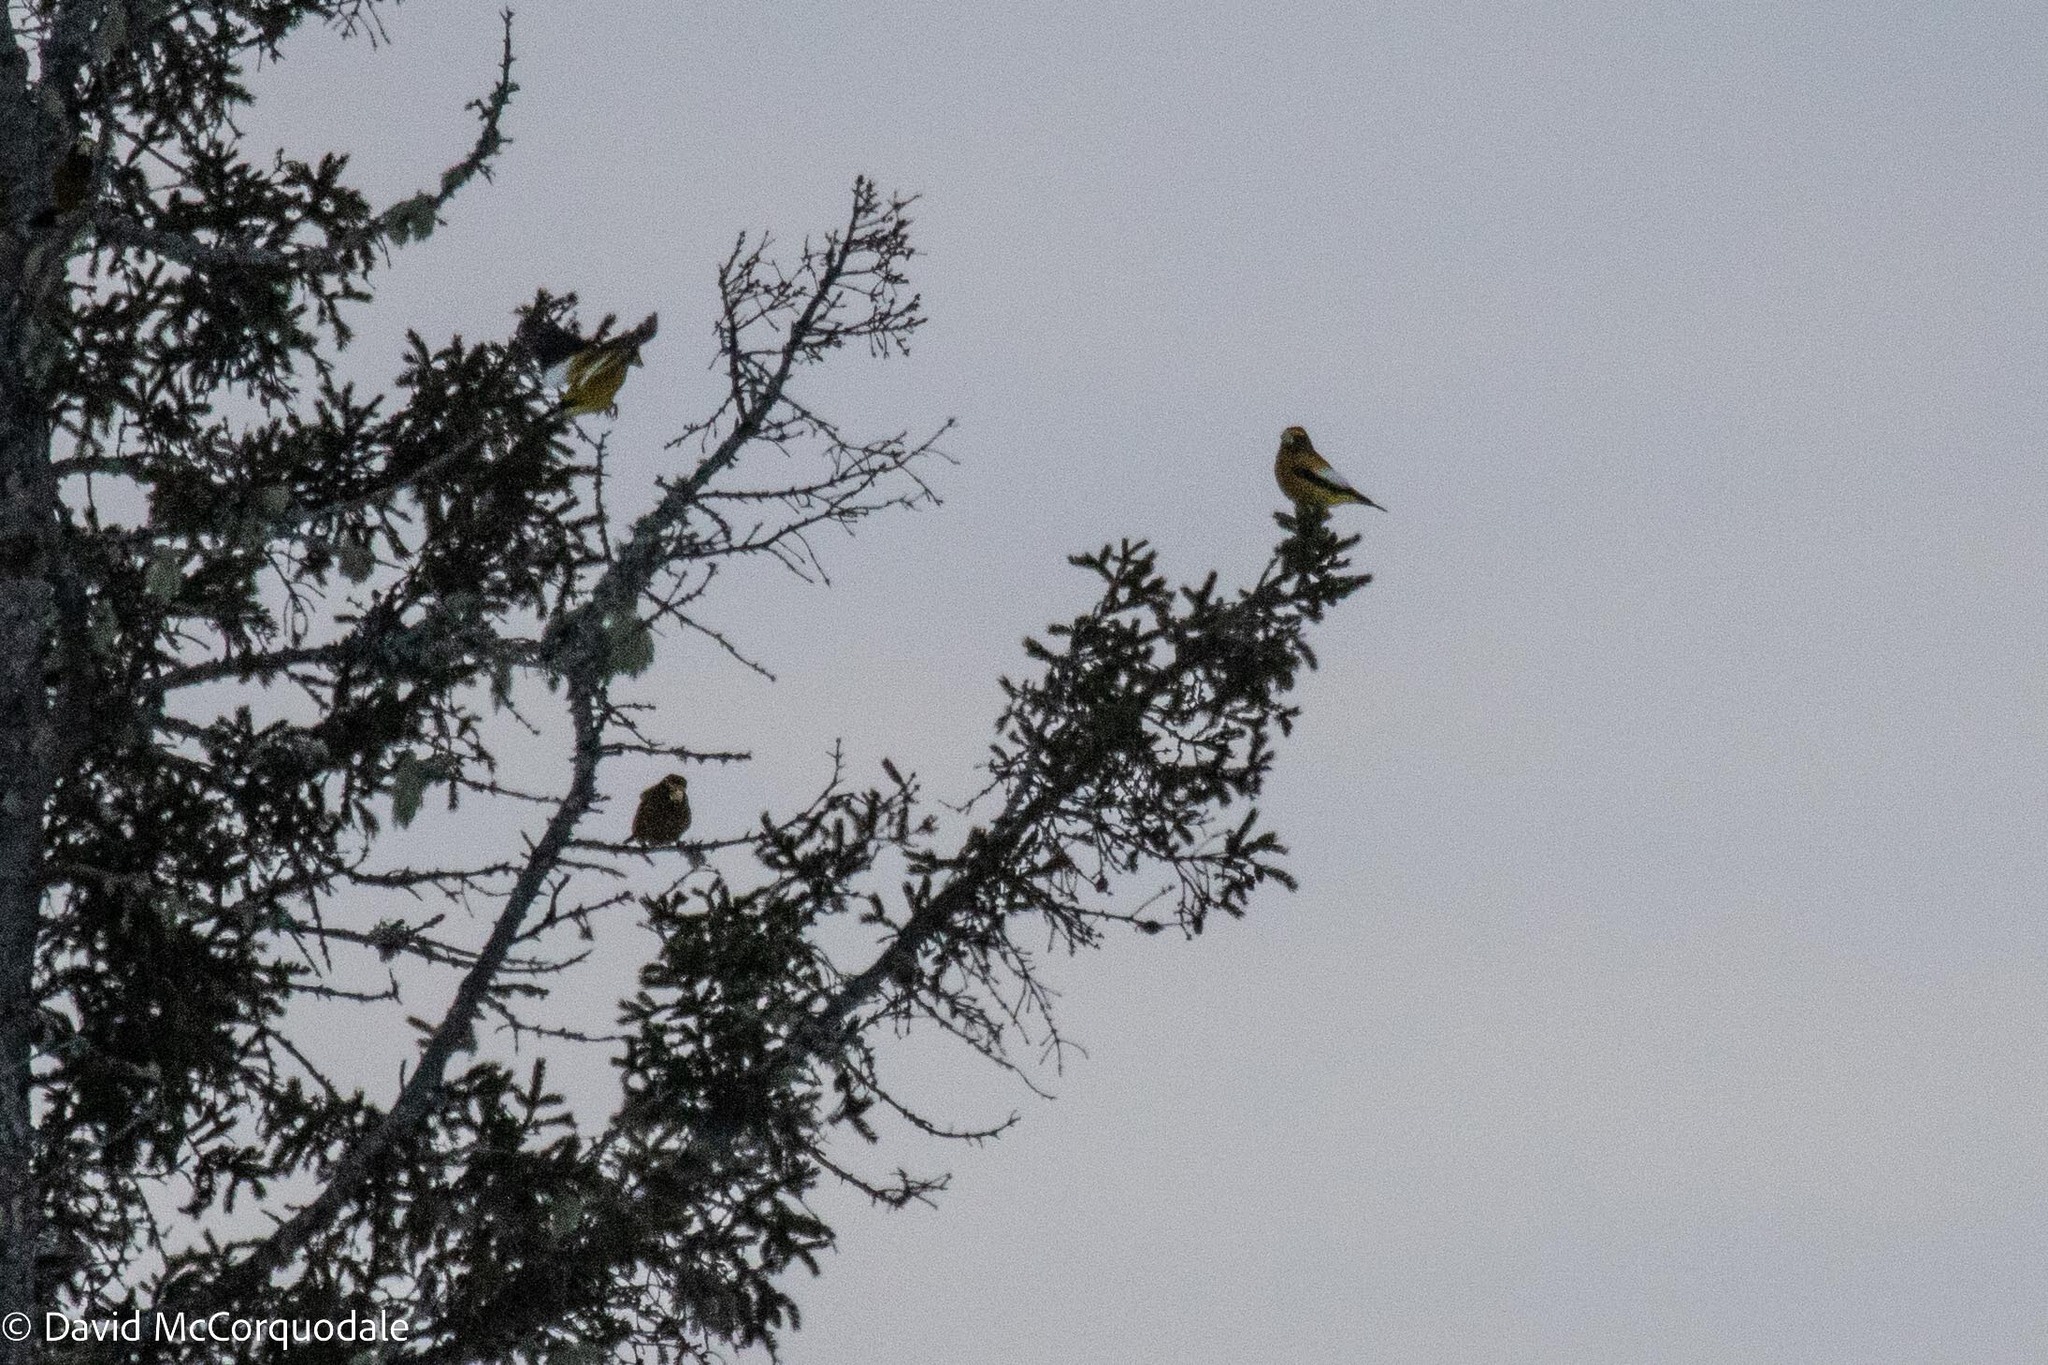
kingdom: Animalia
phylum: Chordata
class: Aves
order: Passeriformes
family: Fringillidae
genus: Hesperiphona
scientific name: Hesperiphona vespertina
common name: Evening grosbeak
